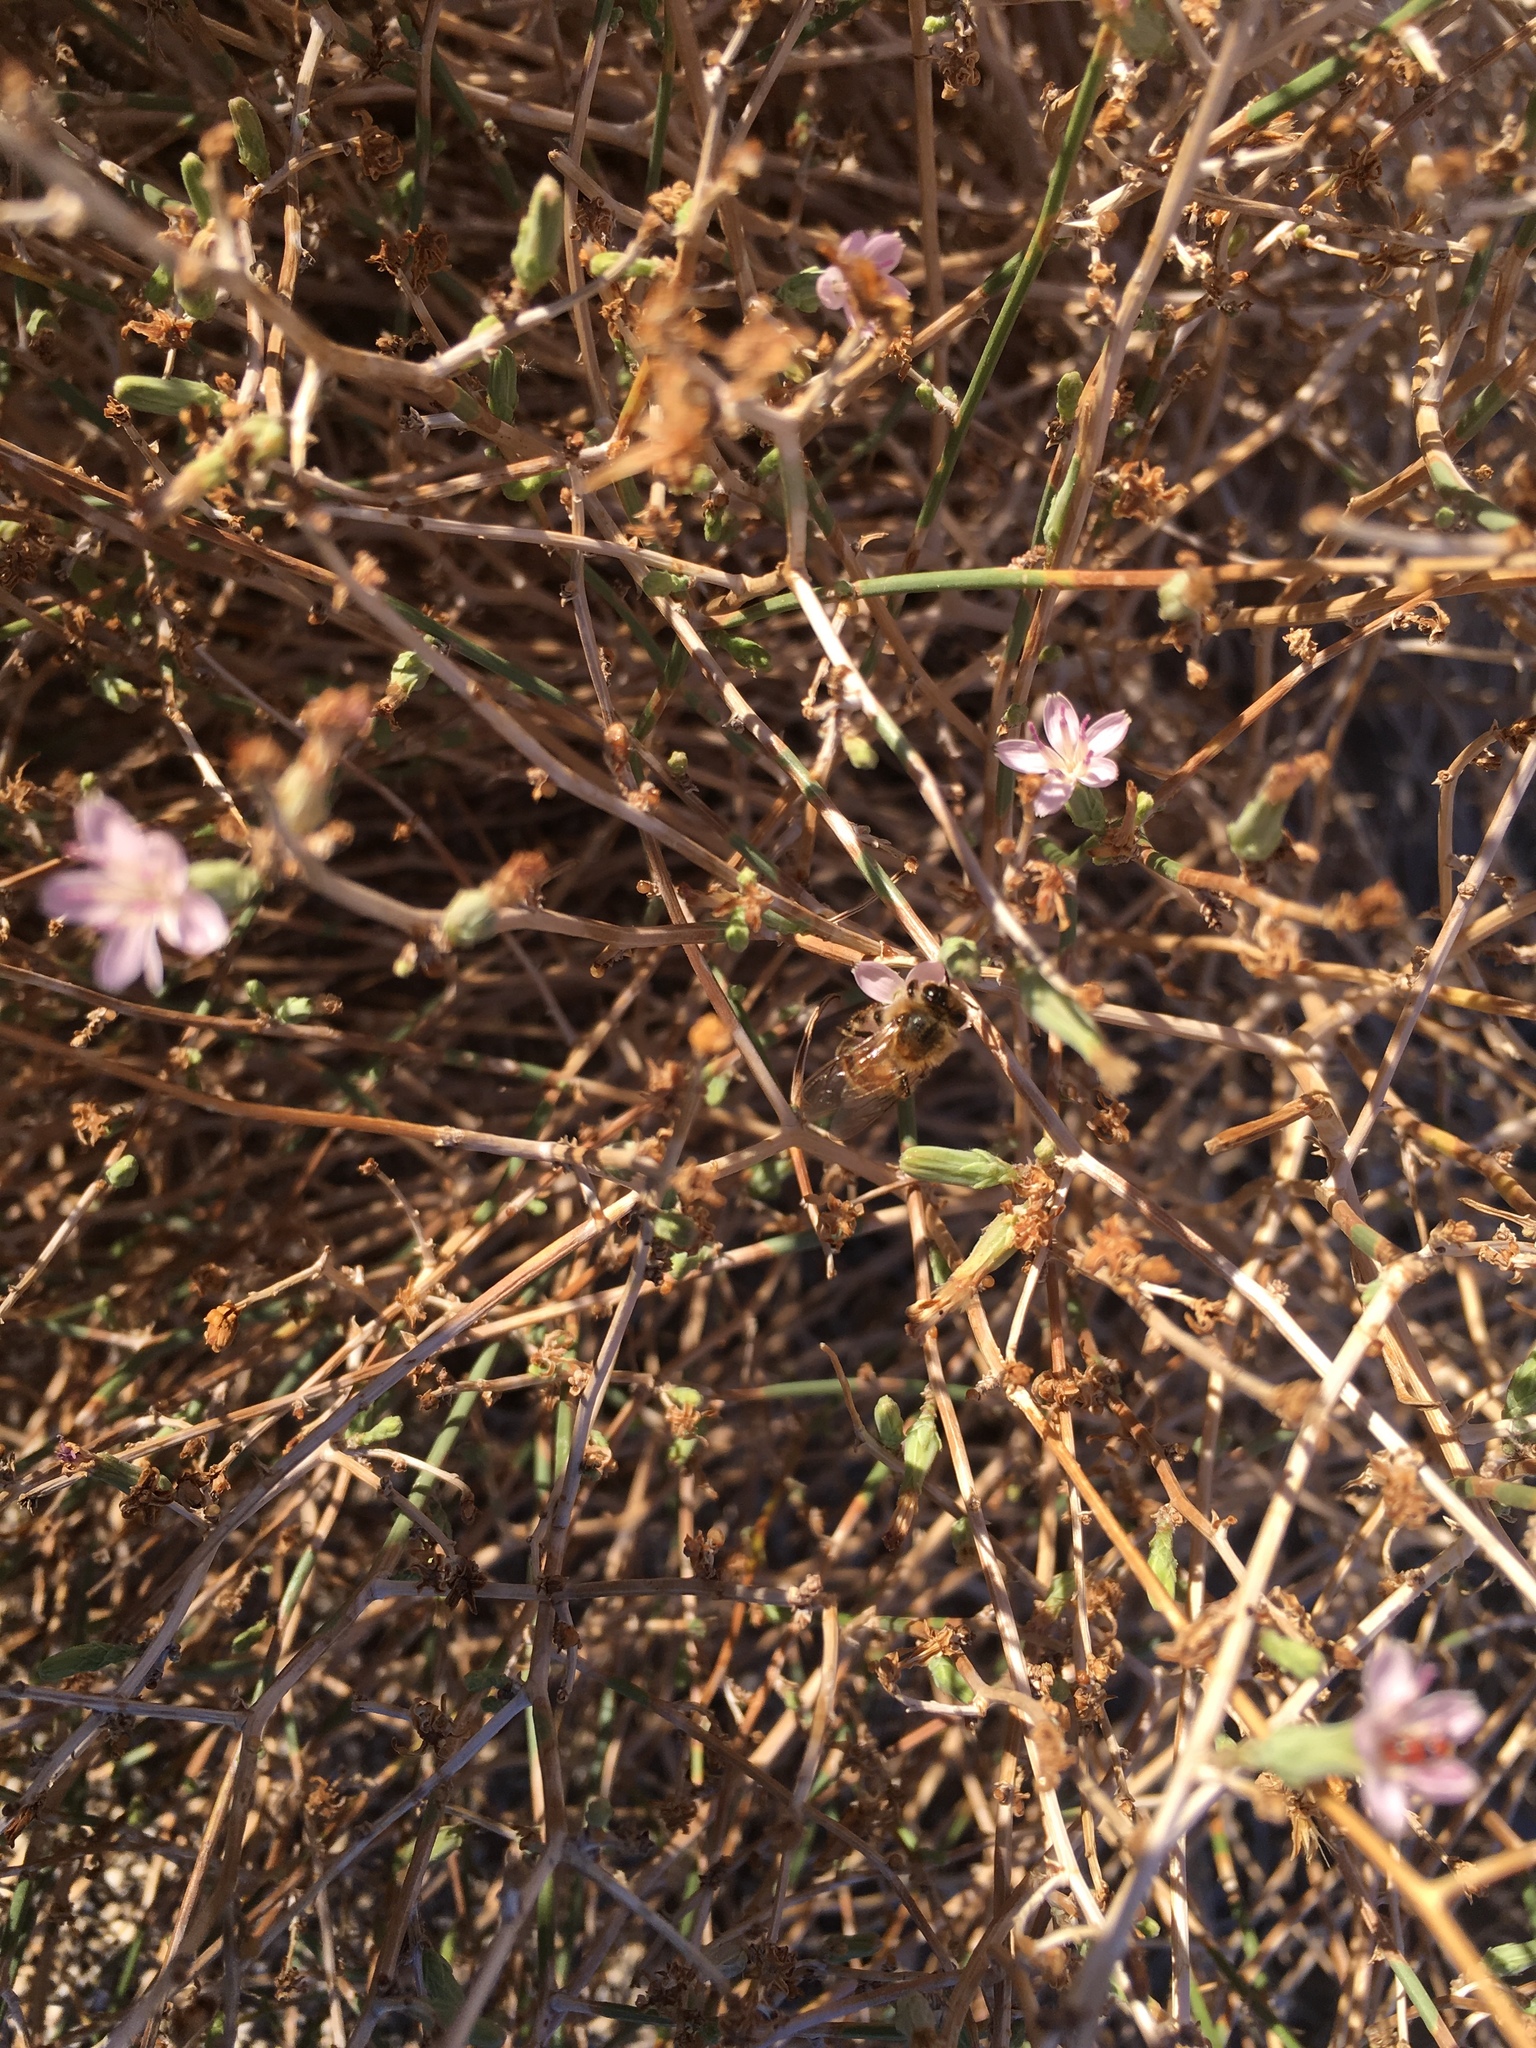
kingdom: Animalia
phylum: Arthropoda
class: Insecta
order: Hymenoptera
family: Apidae
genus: Apis
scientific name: Apis mellifera
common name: Honey bee
